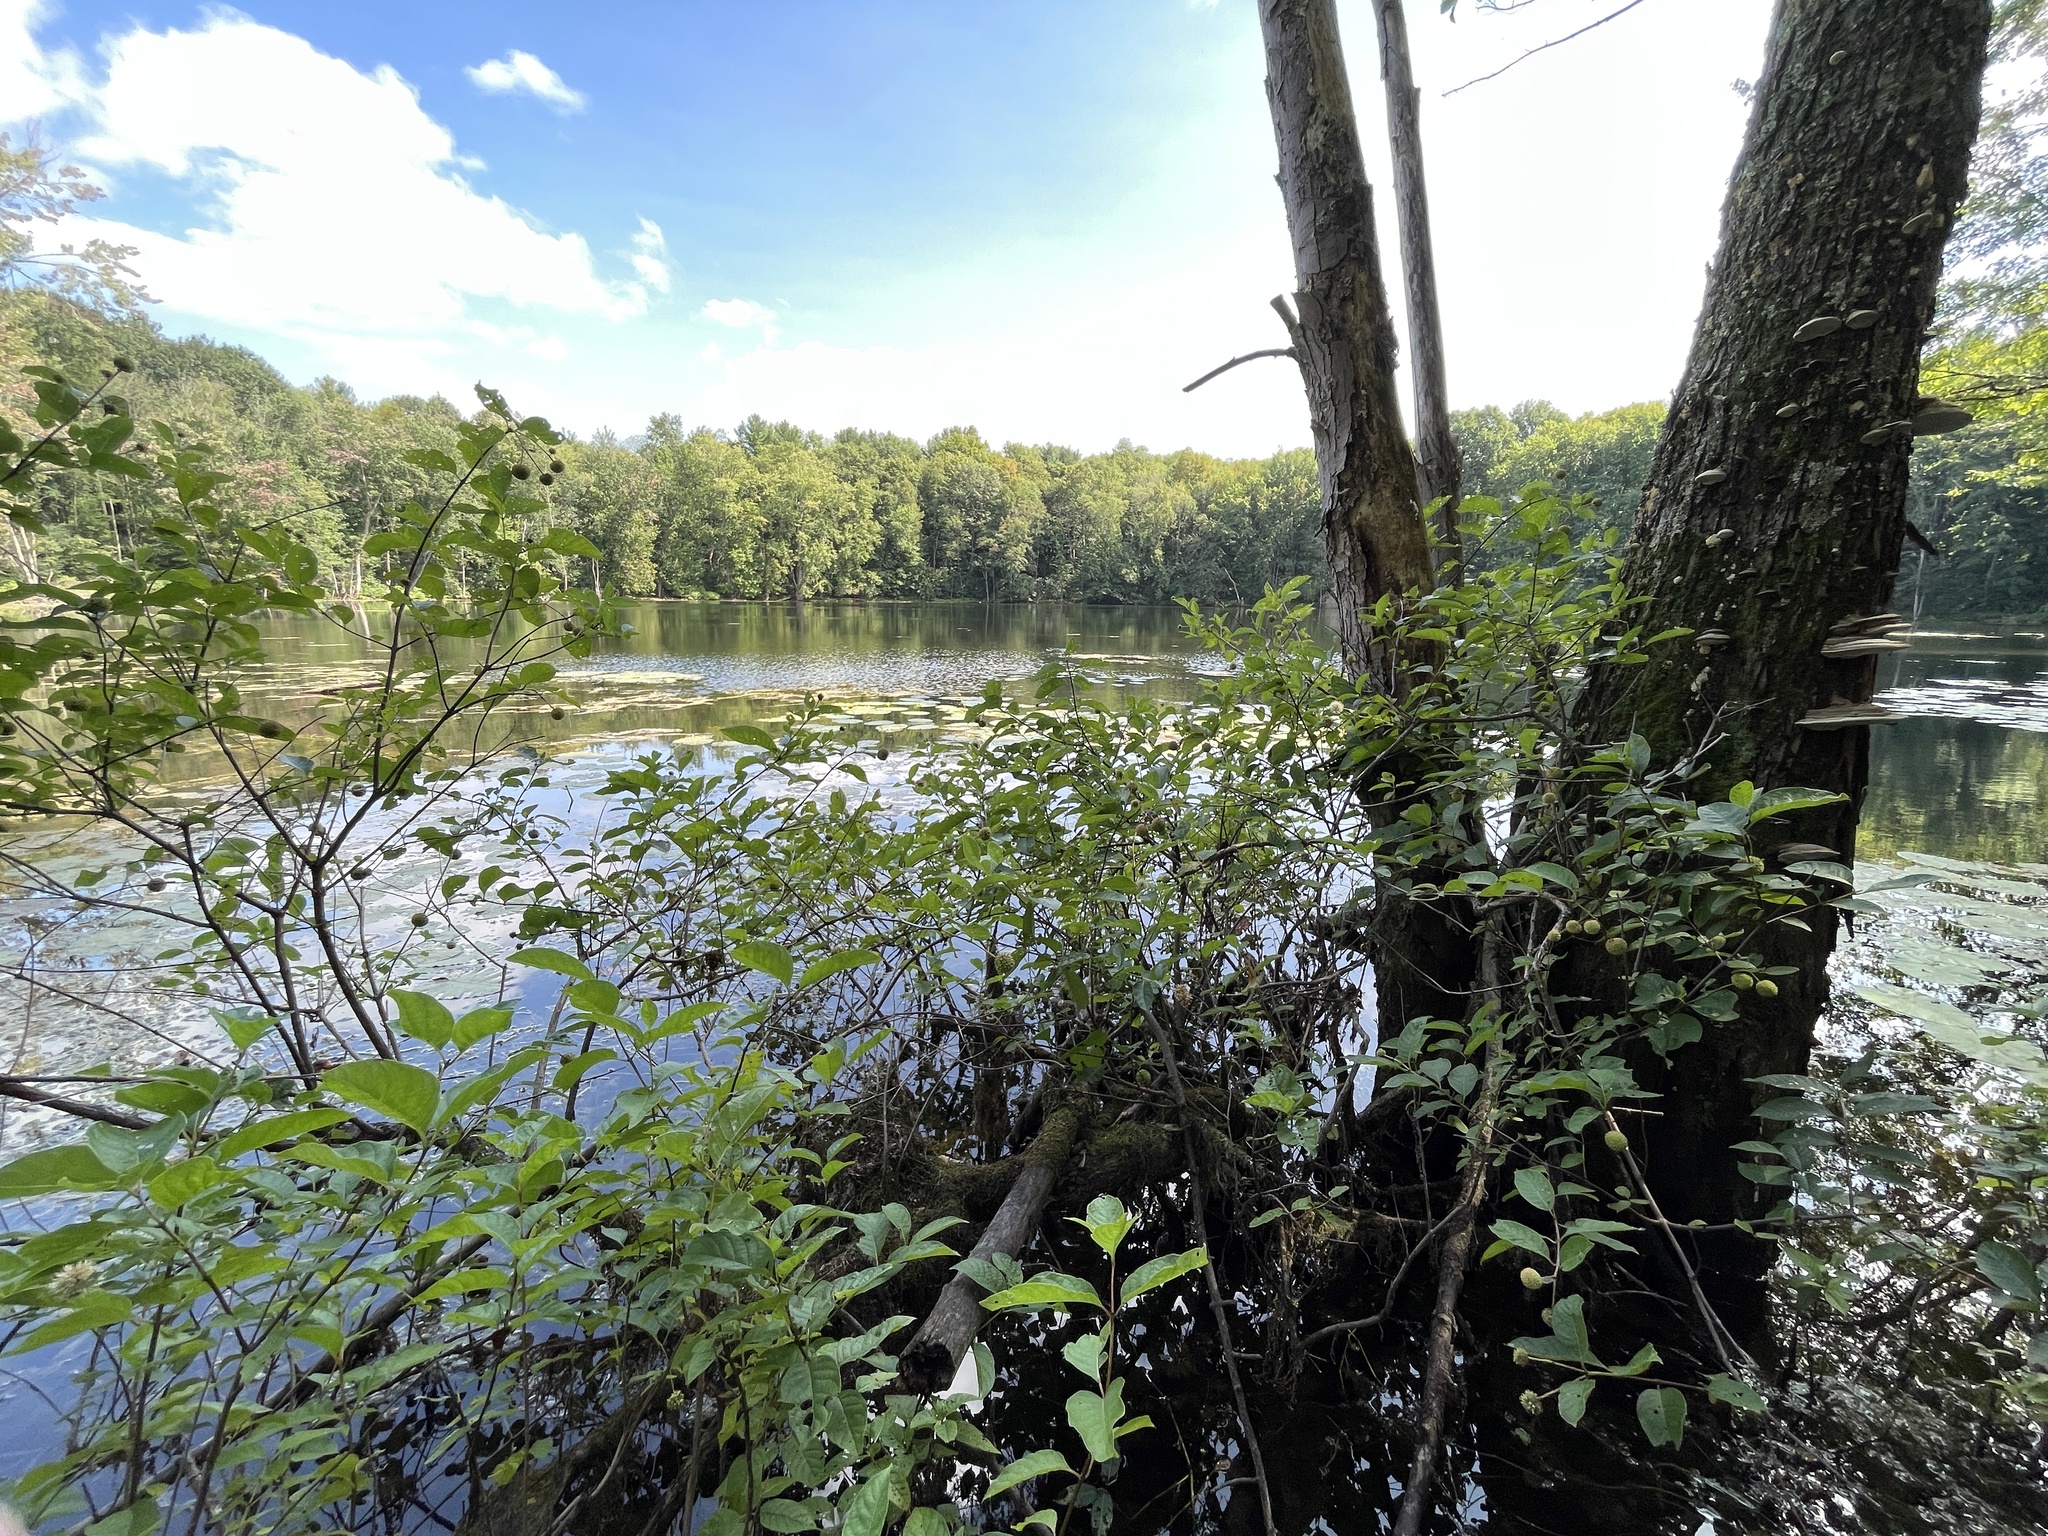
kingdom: Plantae
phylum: Tracheophyta
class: Magnoliopsida
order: Gentianales
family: Rubiaceae
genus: Cephalanthus
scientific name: Cephalanthus occidentalis
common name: Button-willow
